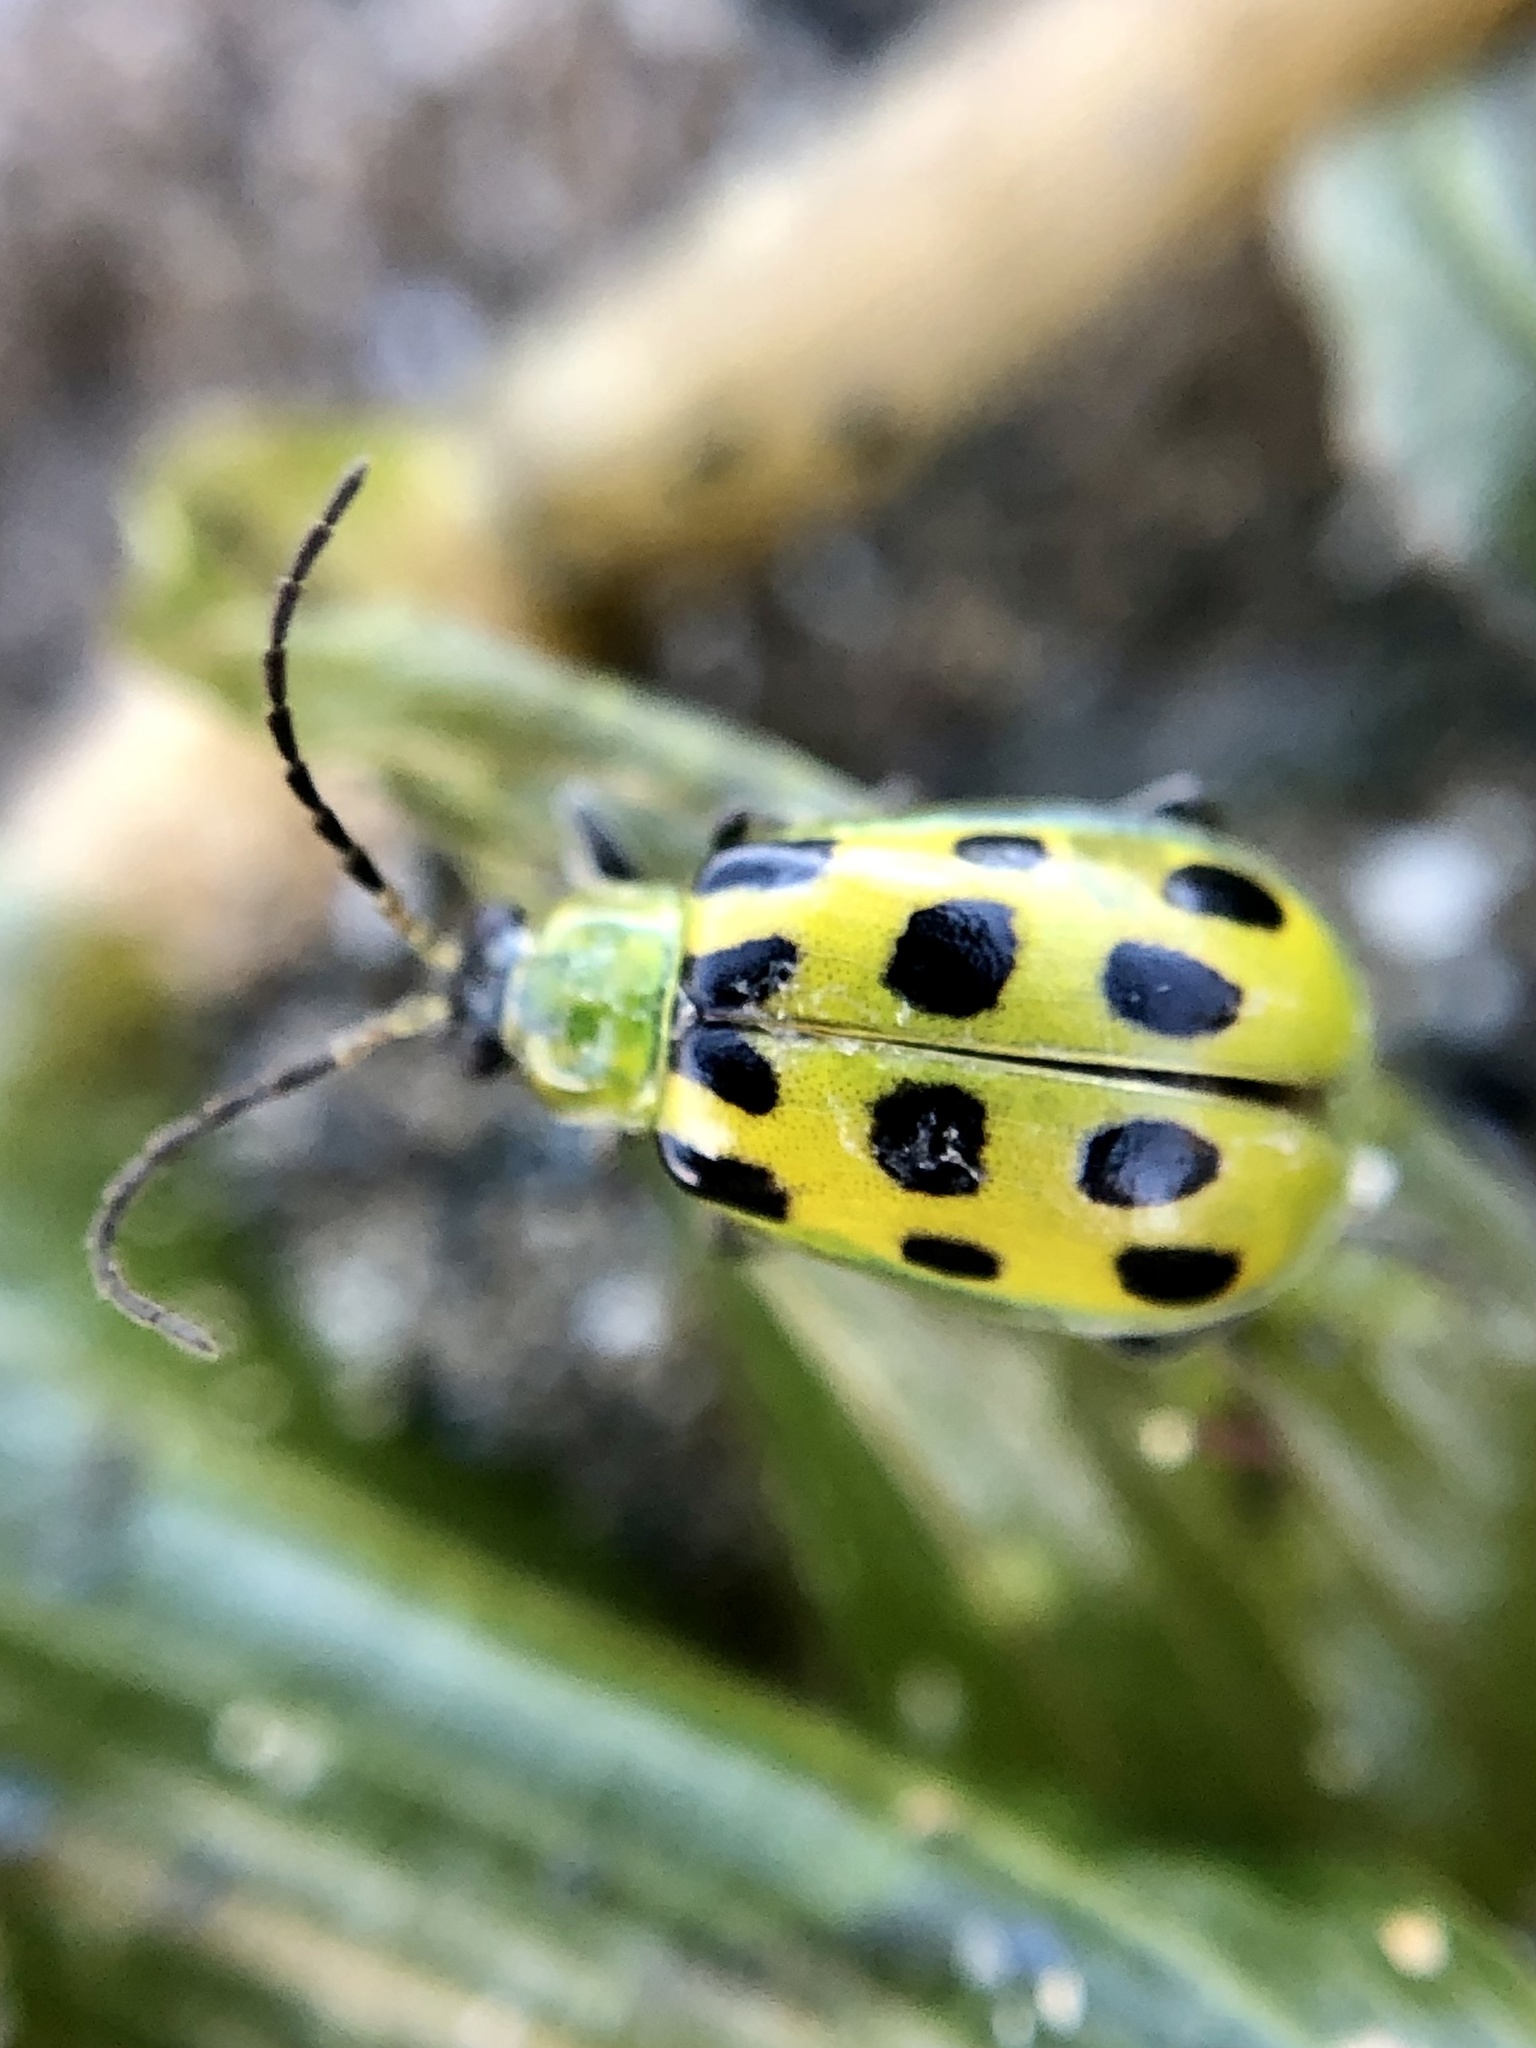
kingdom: Animalia
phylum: Arthropoda
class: Insecta
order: Coleoptera
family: Chrysomelidae
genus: Diabrotica
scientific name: Diabrotica undecimpunctata
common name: Spotted cucumber beetle
